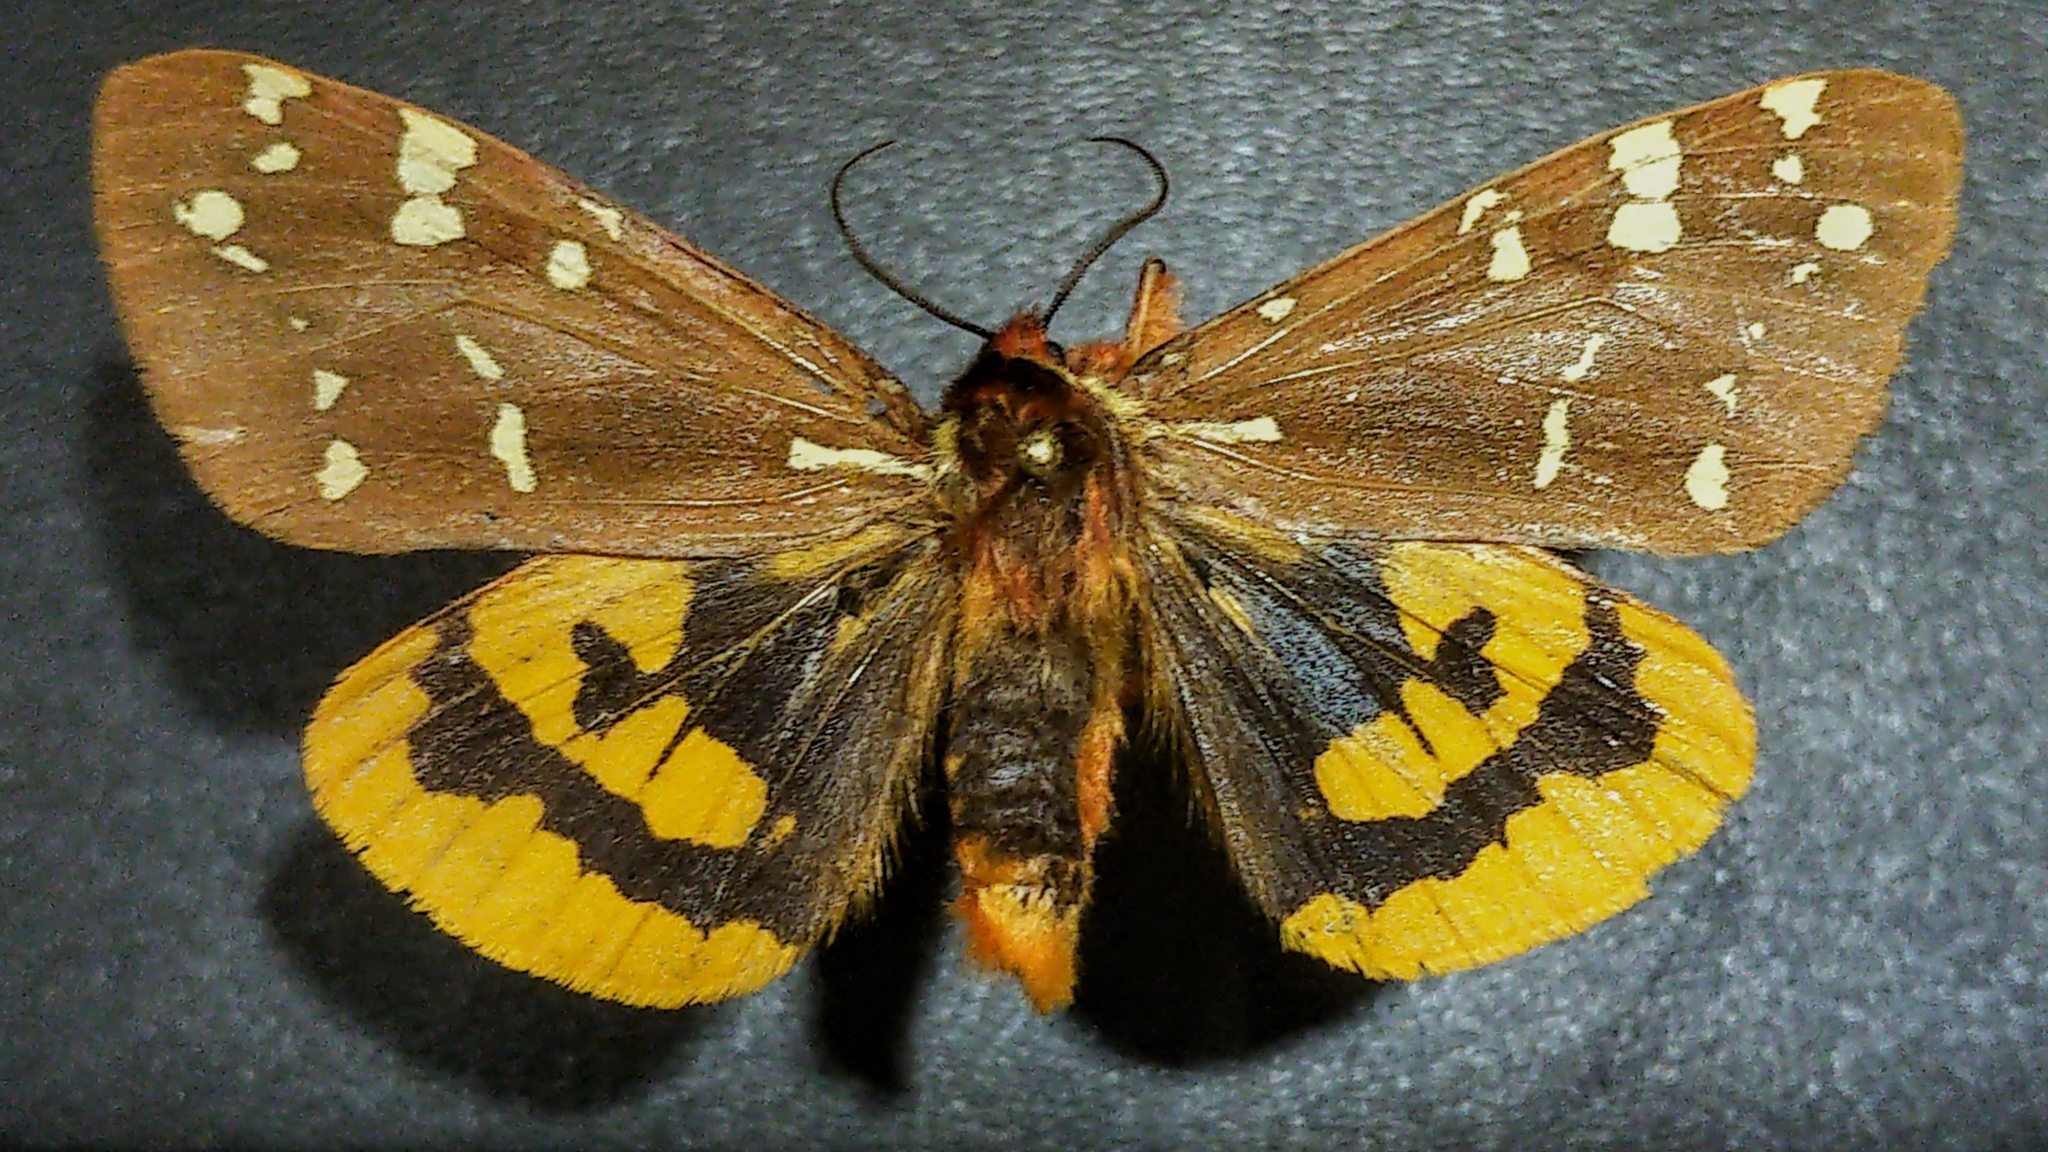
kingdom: Animalia
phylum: Arthropoda
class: Insecta
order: Lepidoptera
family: Erebidae
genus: Arctia
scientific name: Arctia parthenos
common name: St. lawrence tiger moth
